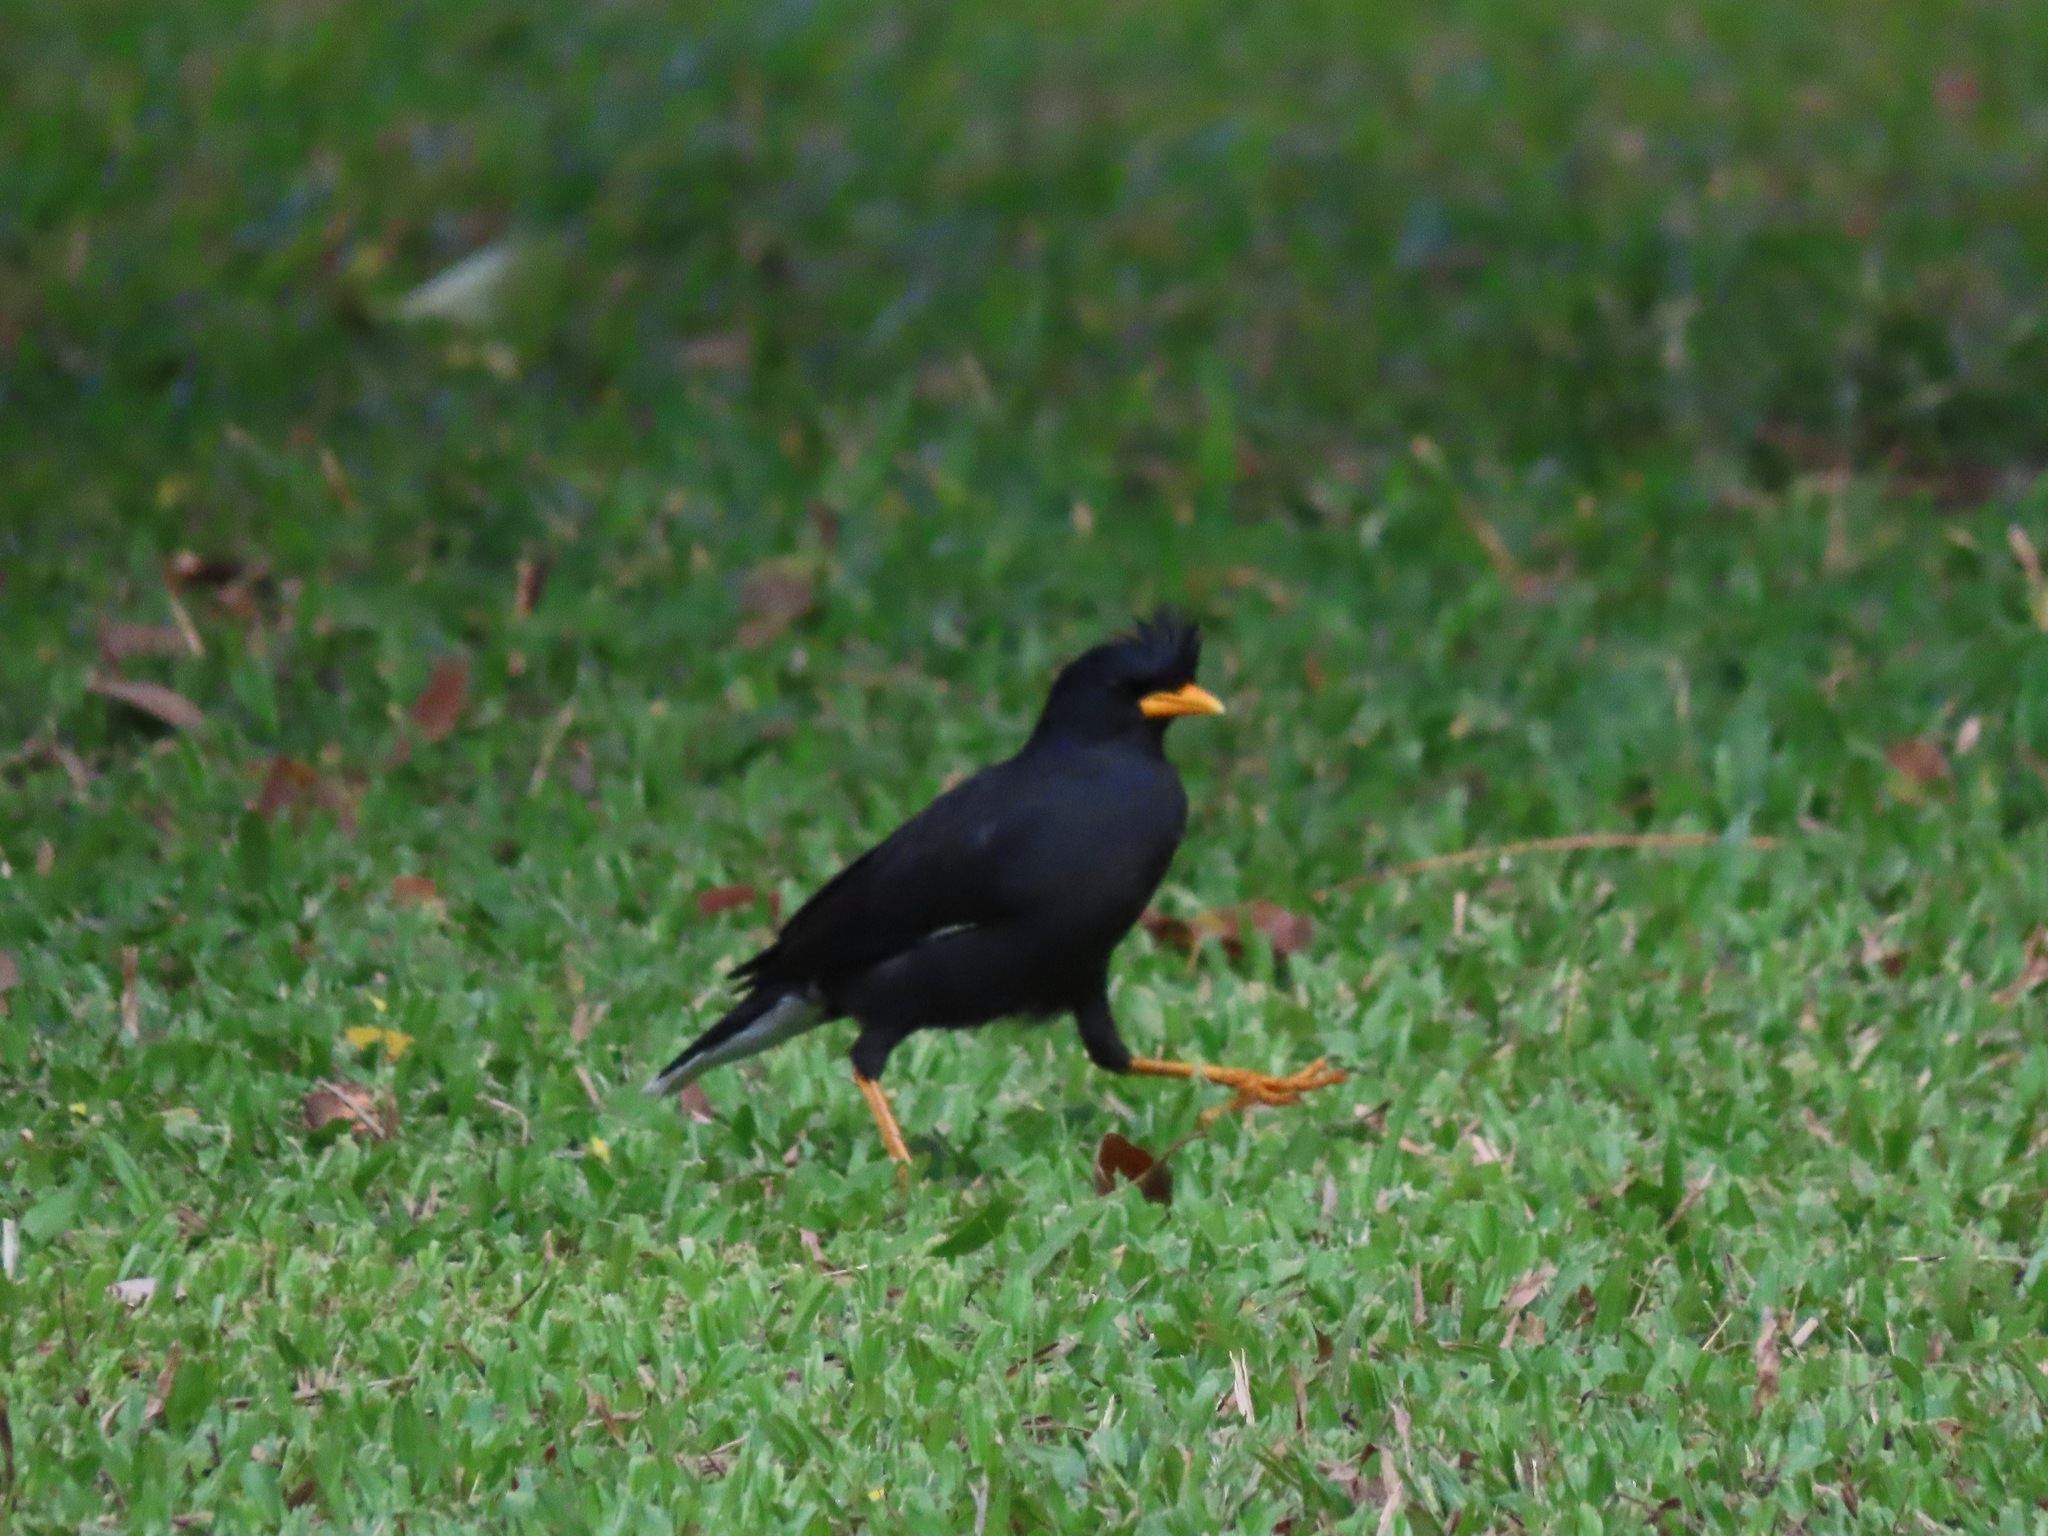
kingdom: Animalia
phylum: Chordata
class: Aves
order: Passeriformes
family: Sturnidae
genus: Acridotheres
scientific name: Acridotheres grandis
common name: Great myna
